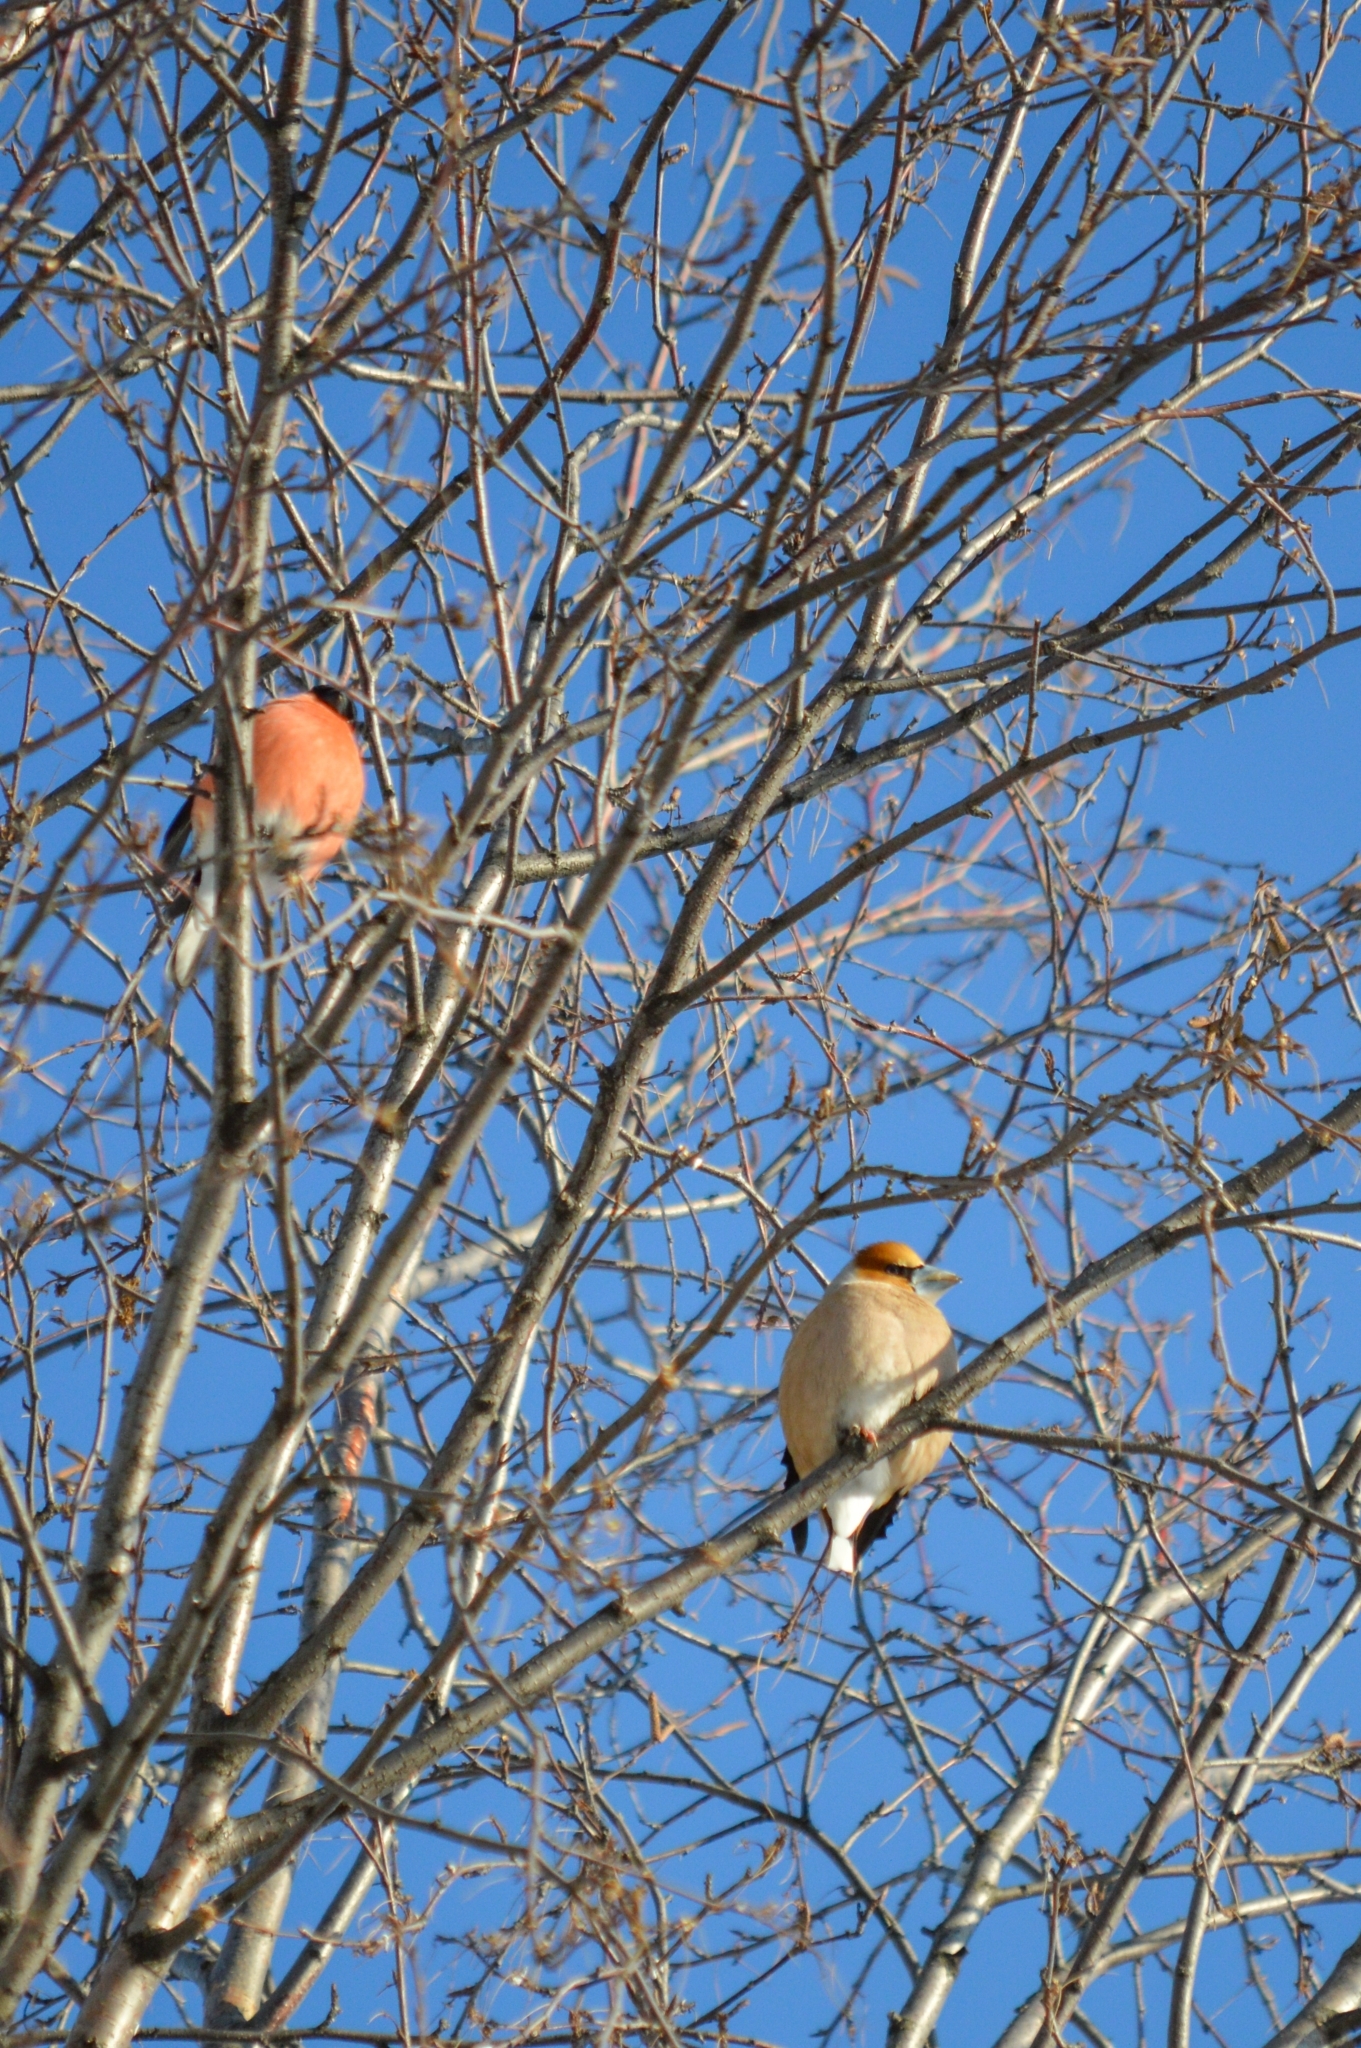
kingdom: Animalia
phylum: Chordata
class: Aves
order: Passeriformes
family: Fringillidae
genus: Pyrrhula
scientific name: Pyrrhula pyrrhula
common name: Eurasian bullfinch
